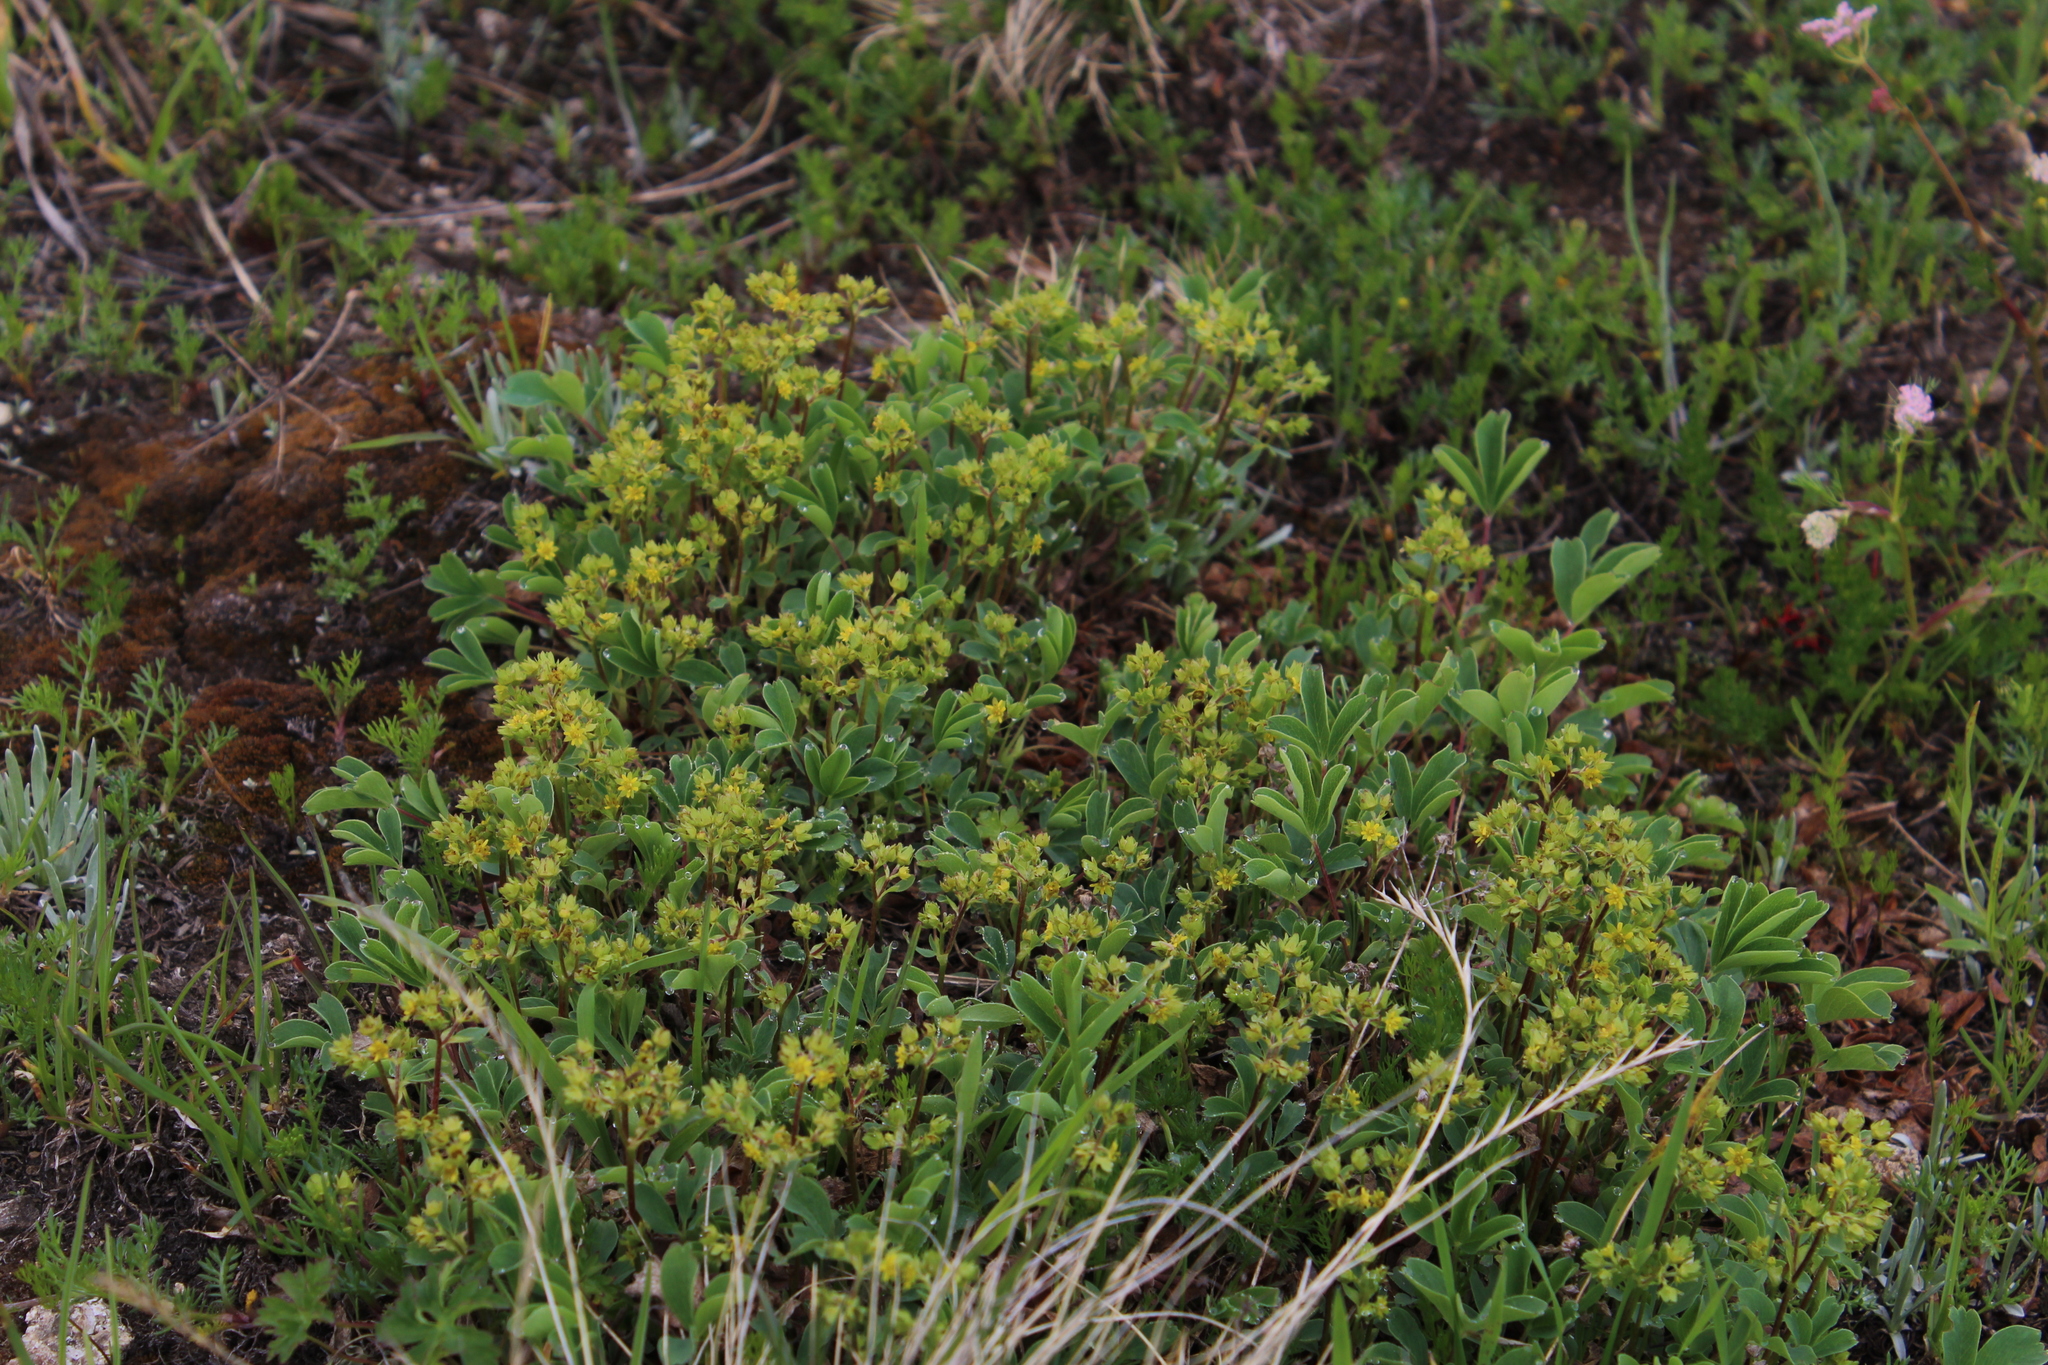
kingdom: Plantae
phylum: Tracheophyta
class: Magnoliopsida
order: Rosales
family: Rosaceae
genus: Sibbaldia
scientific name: Sibbaldia parviflora
